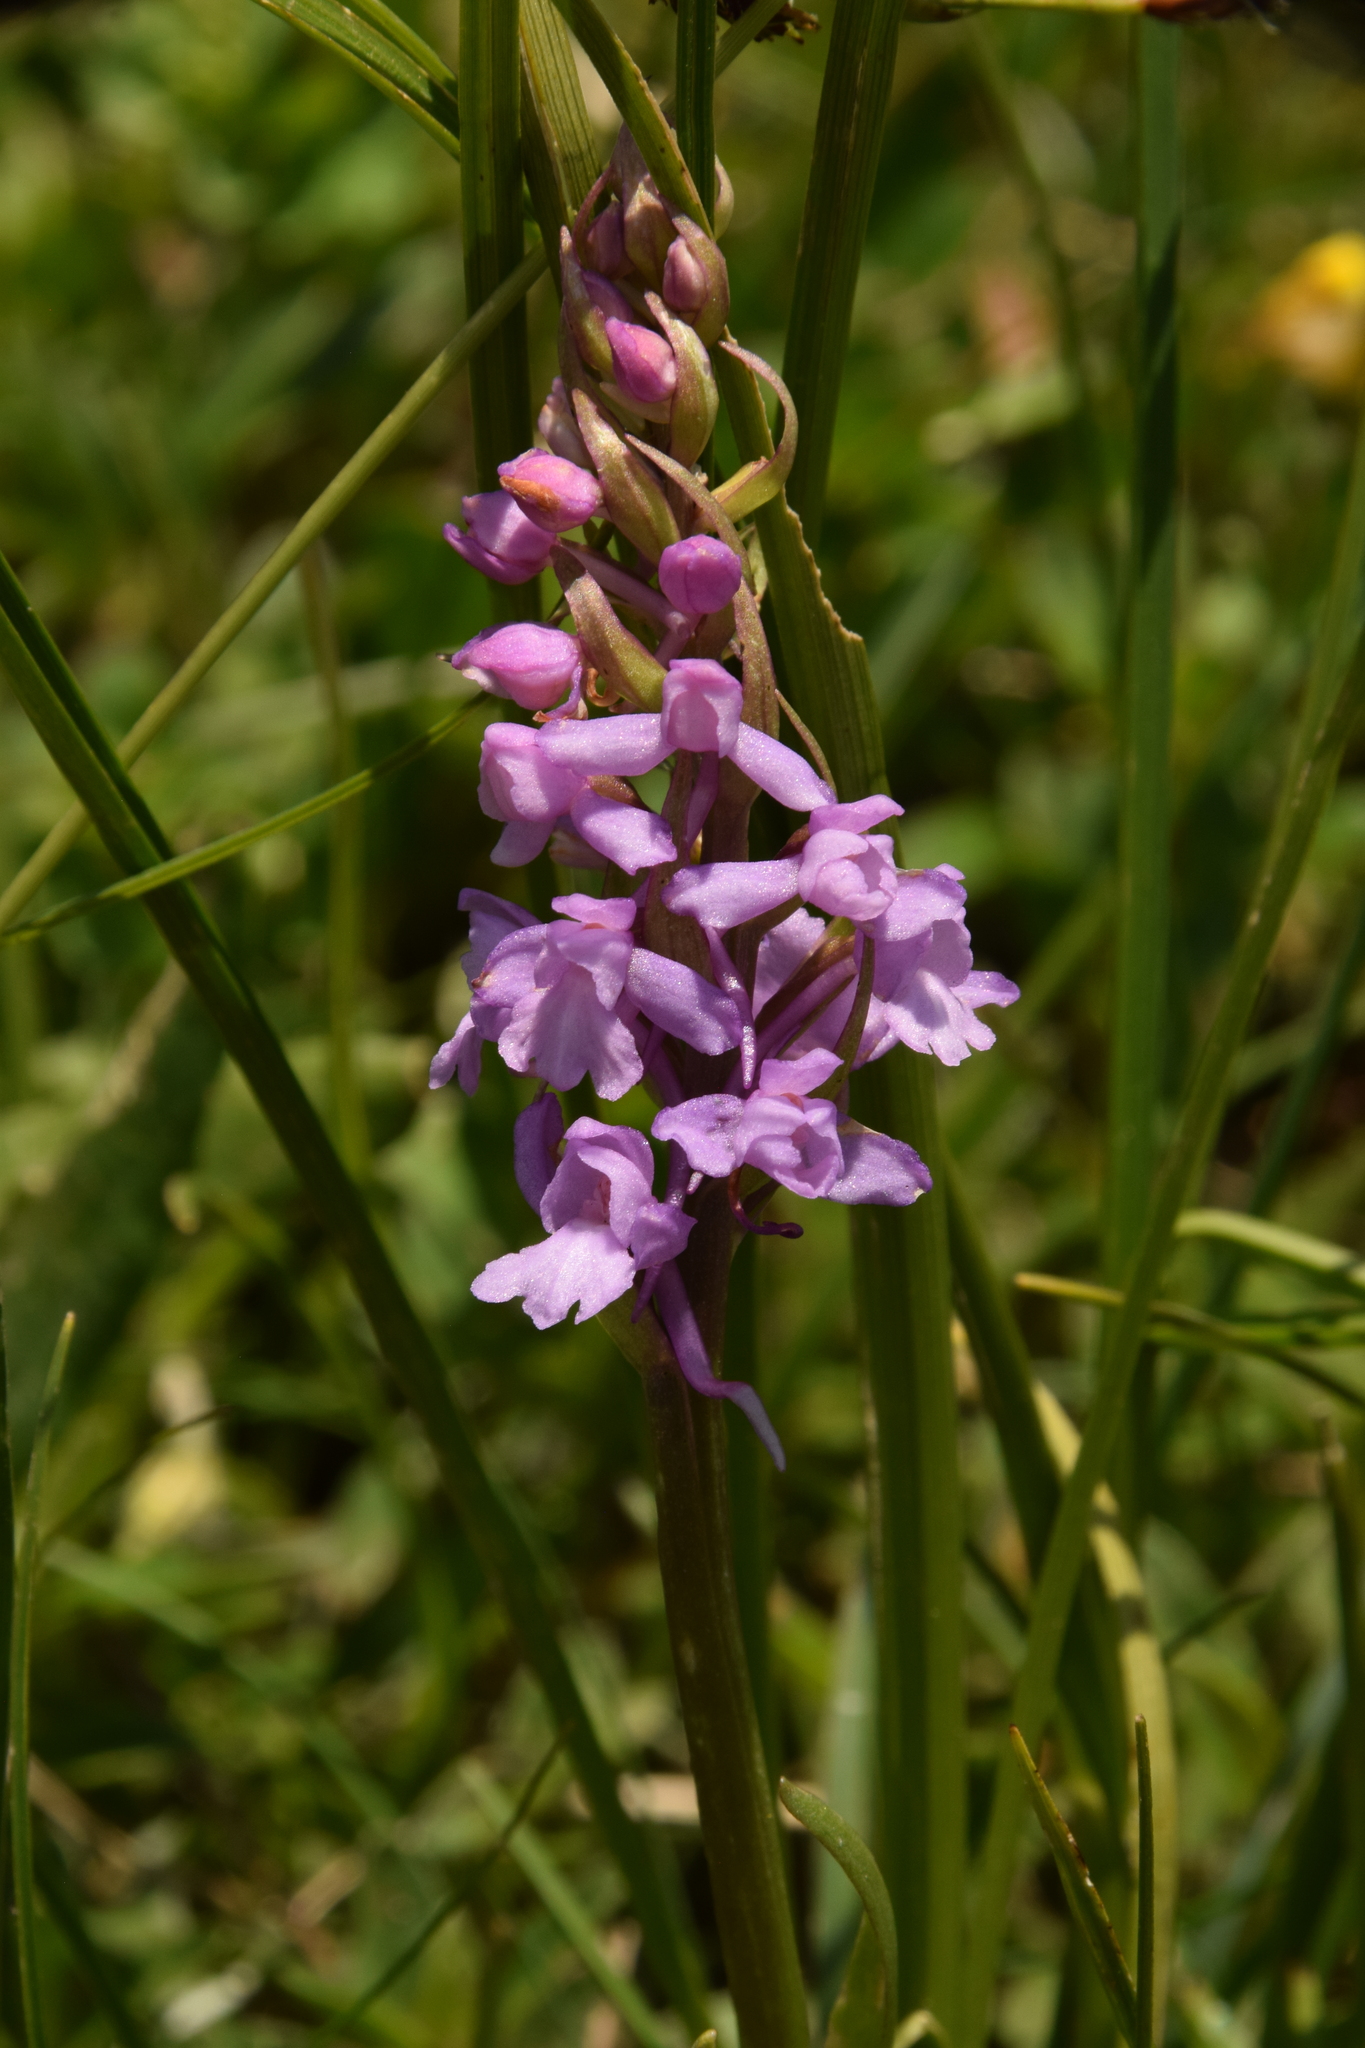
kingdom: Plantae
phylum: Tracheophyta
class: Liliopsida
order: Asparagales
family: Orchidaceae
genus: Gymnadenia
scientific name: Gymnadenia conopsea
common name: Fragrant orchid
